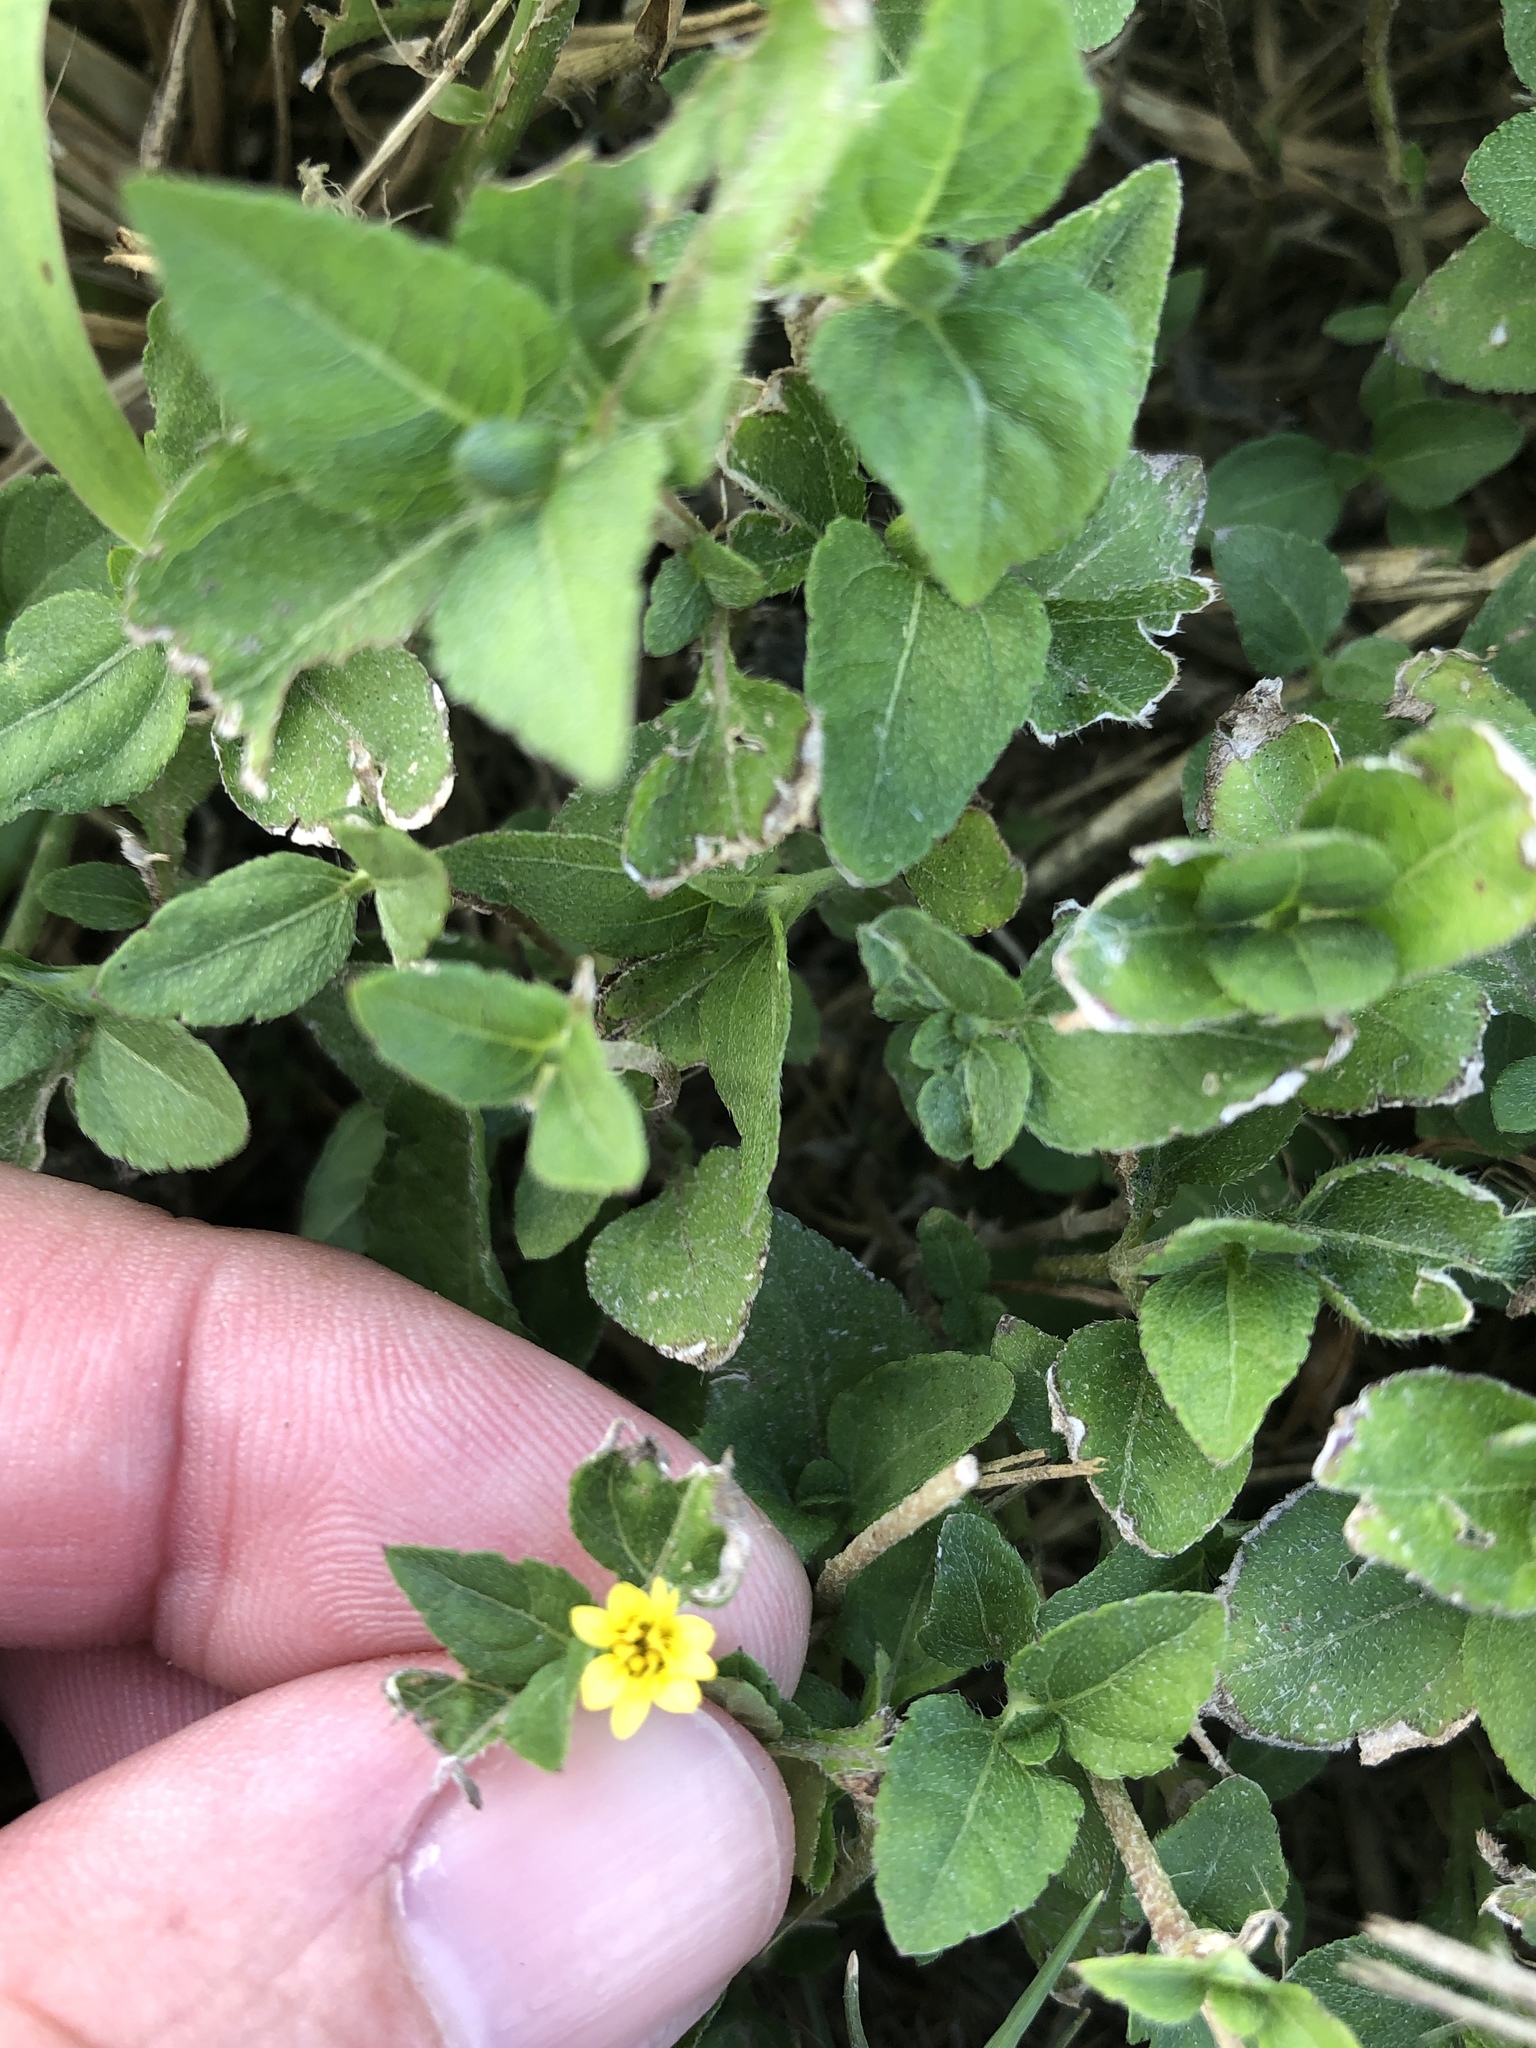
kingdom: Plantae
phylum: Tracheophyta
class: Magnoliopsida
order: Asterales
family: Asteraceae
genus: Calyptocarpus
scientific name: Calyptocarpus vialis
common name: Straggler daisy
